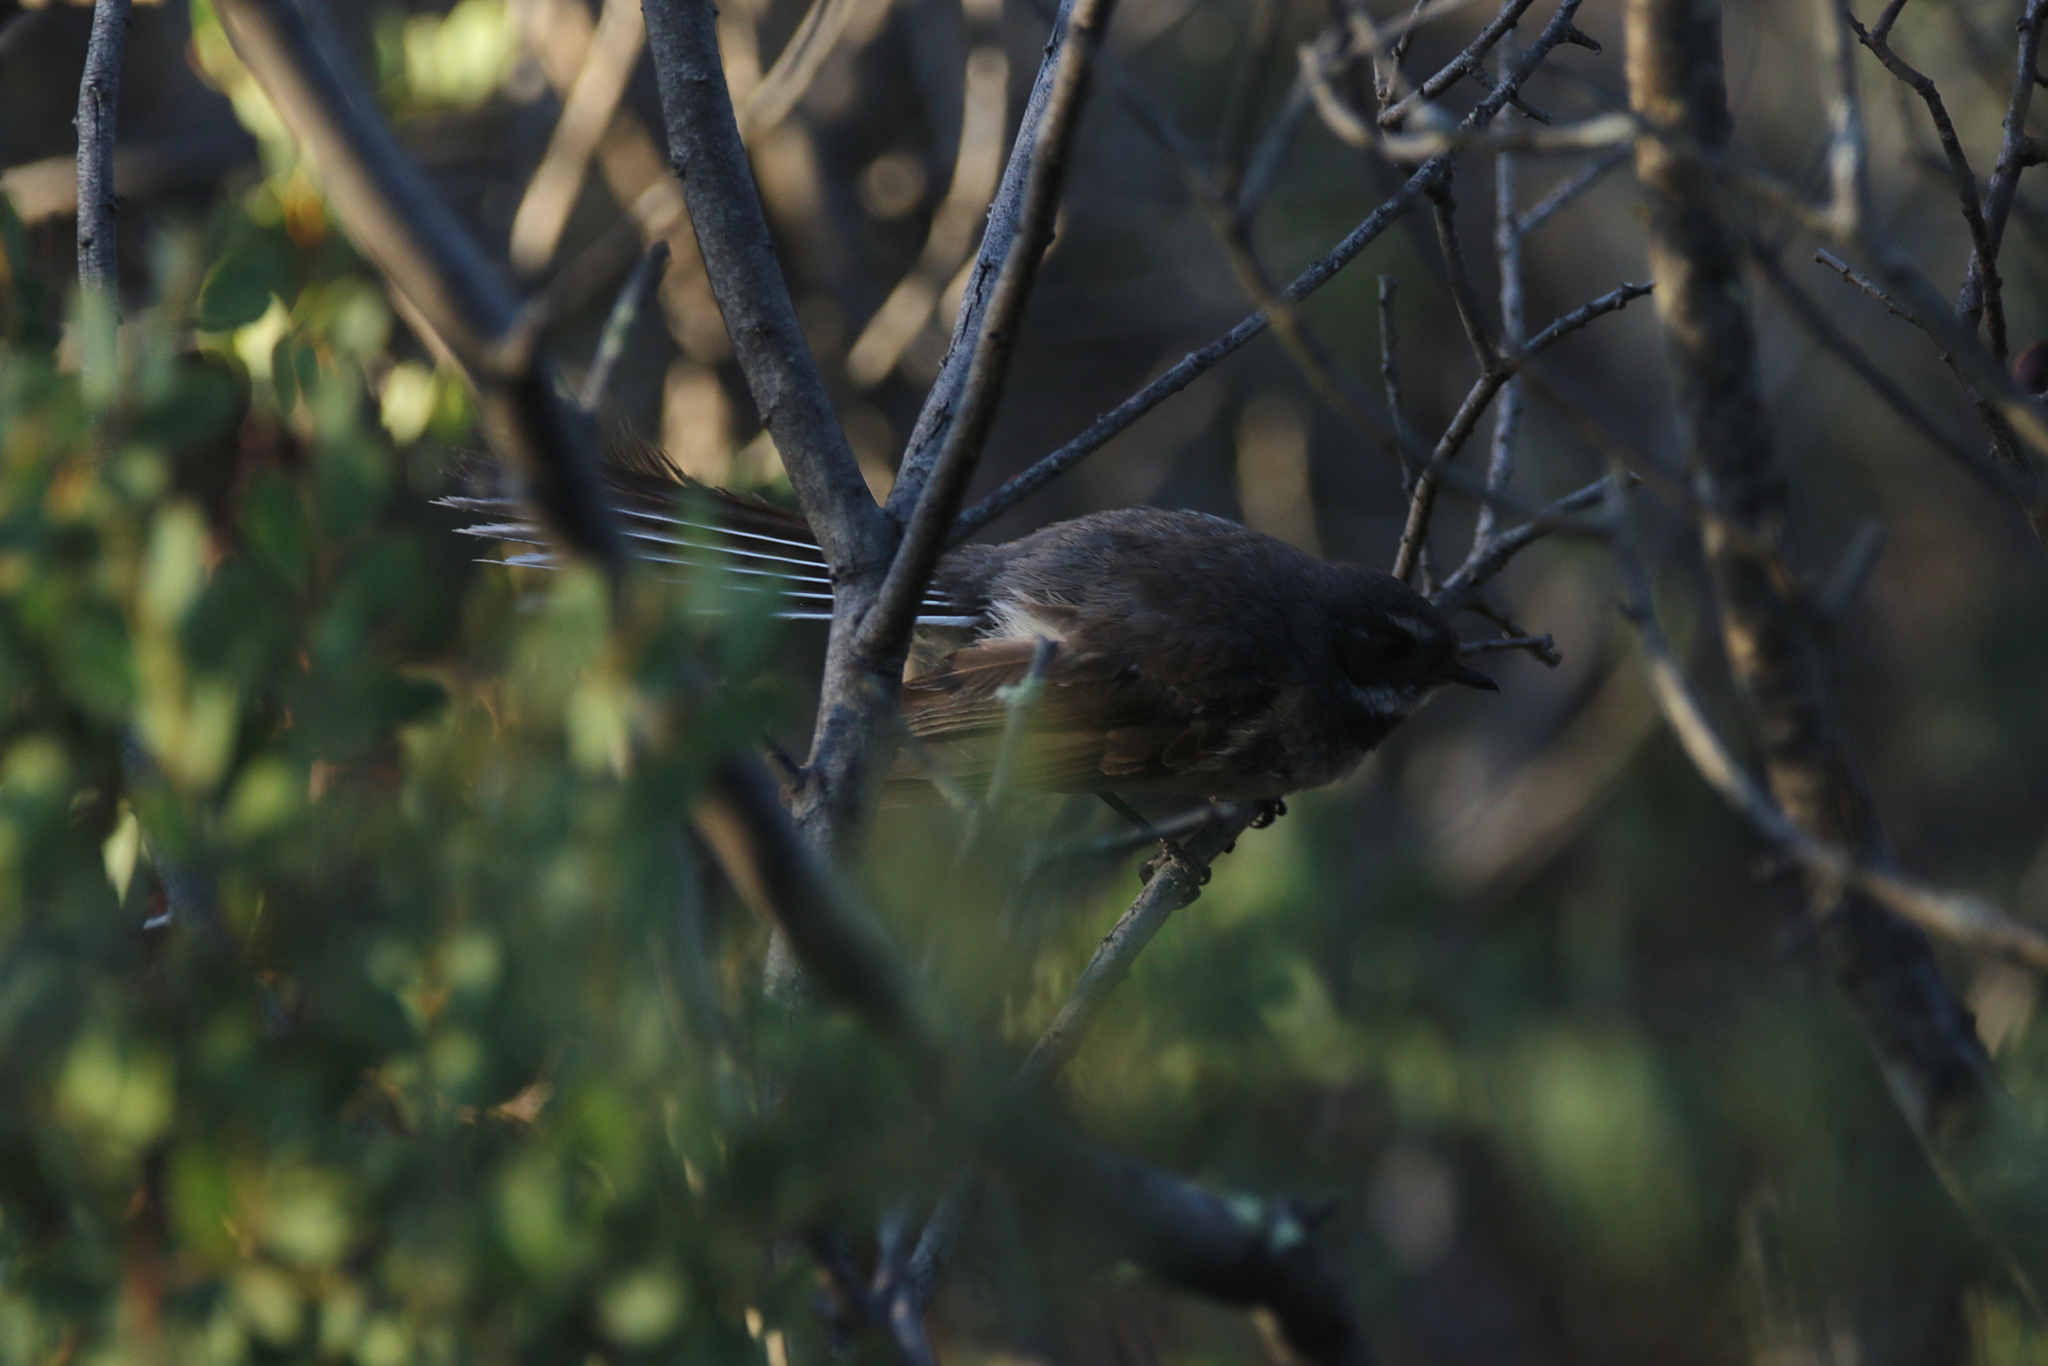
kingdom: Animalia
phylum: Chordata
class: Aves
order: Passeriformes
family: Rhipiduridae
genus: Rhipidura
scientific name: Rhipidura albiscapa
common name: Grey fantail
